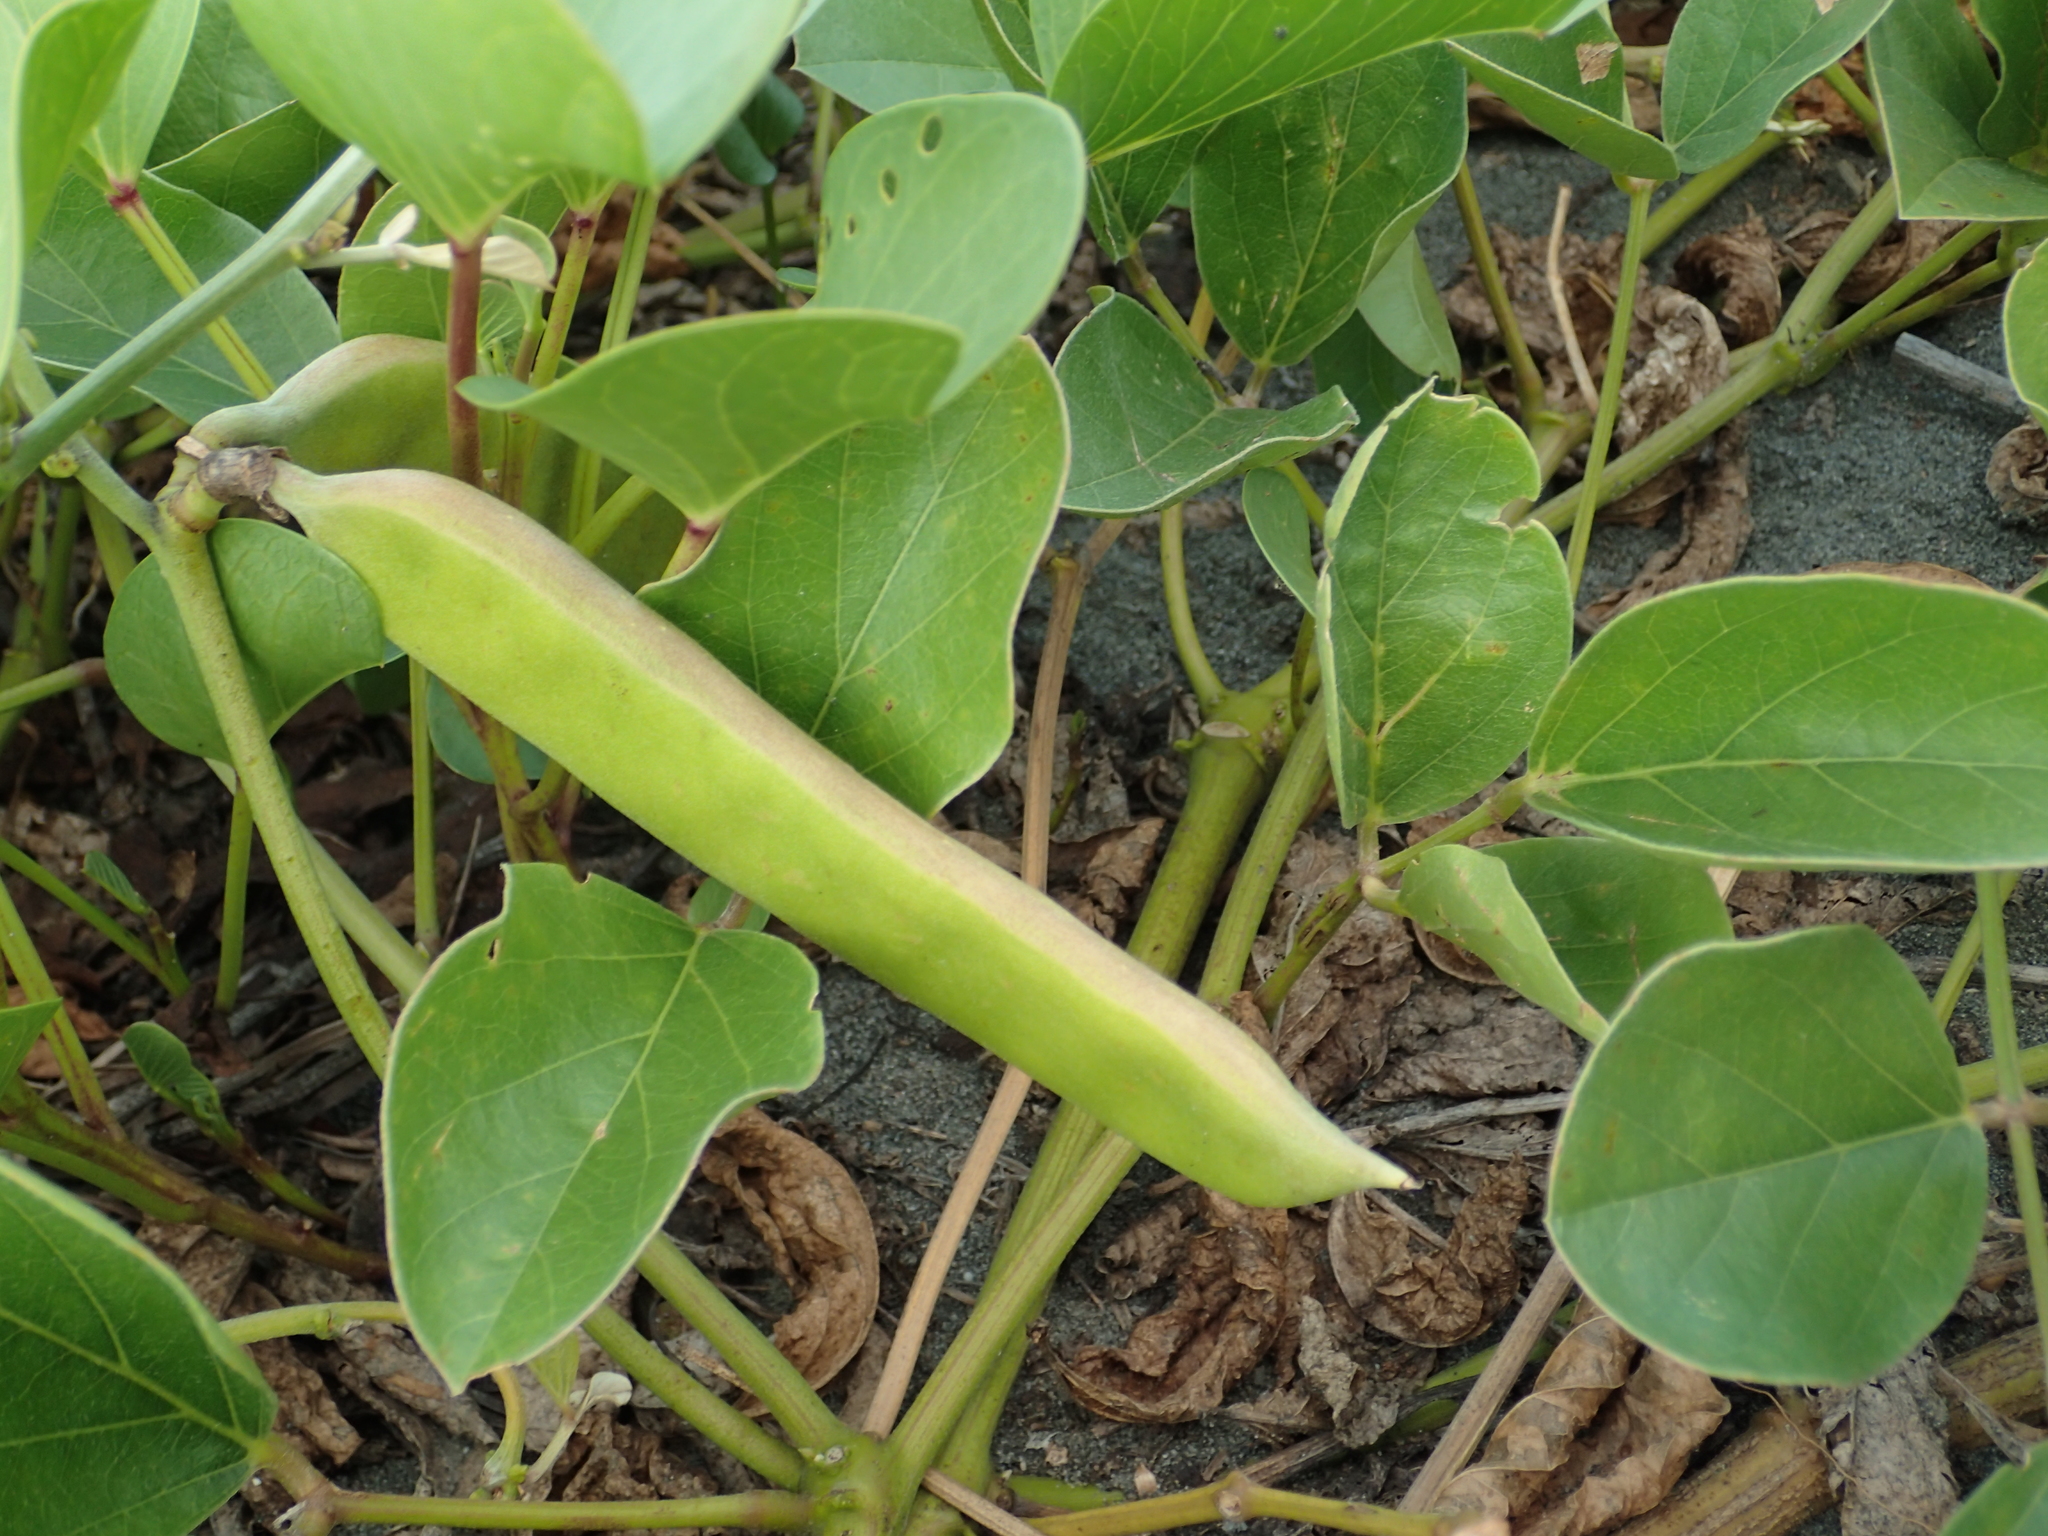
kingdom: Plantae
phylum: Tracheophyta
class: Magnoliopsida
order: Fabales
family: Fabaceae
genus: Canavalia
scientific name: Canavalia lineata
